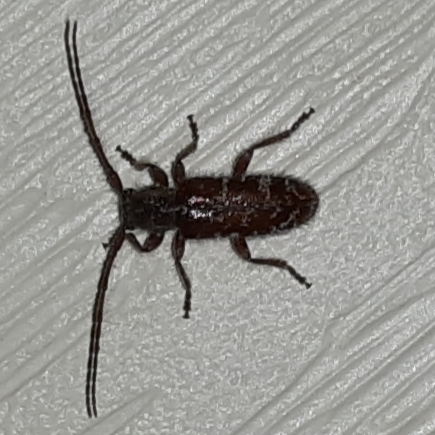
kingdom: Animalia
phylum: Arthropoda
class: Insecta
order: Coleoptera
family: Cerambycidae
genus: Eupogonius
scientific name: Eupogonius tomentosus
